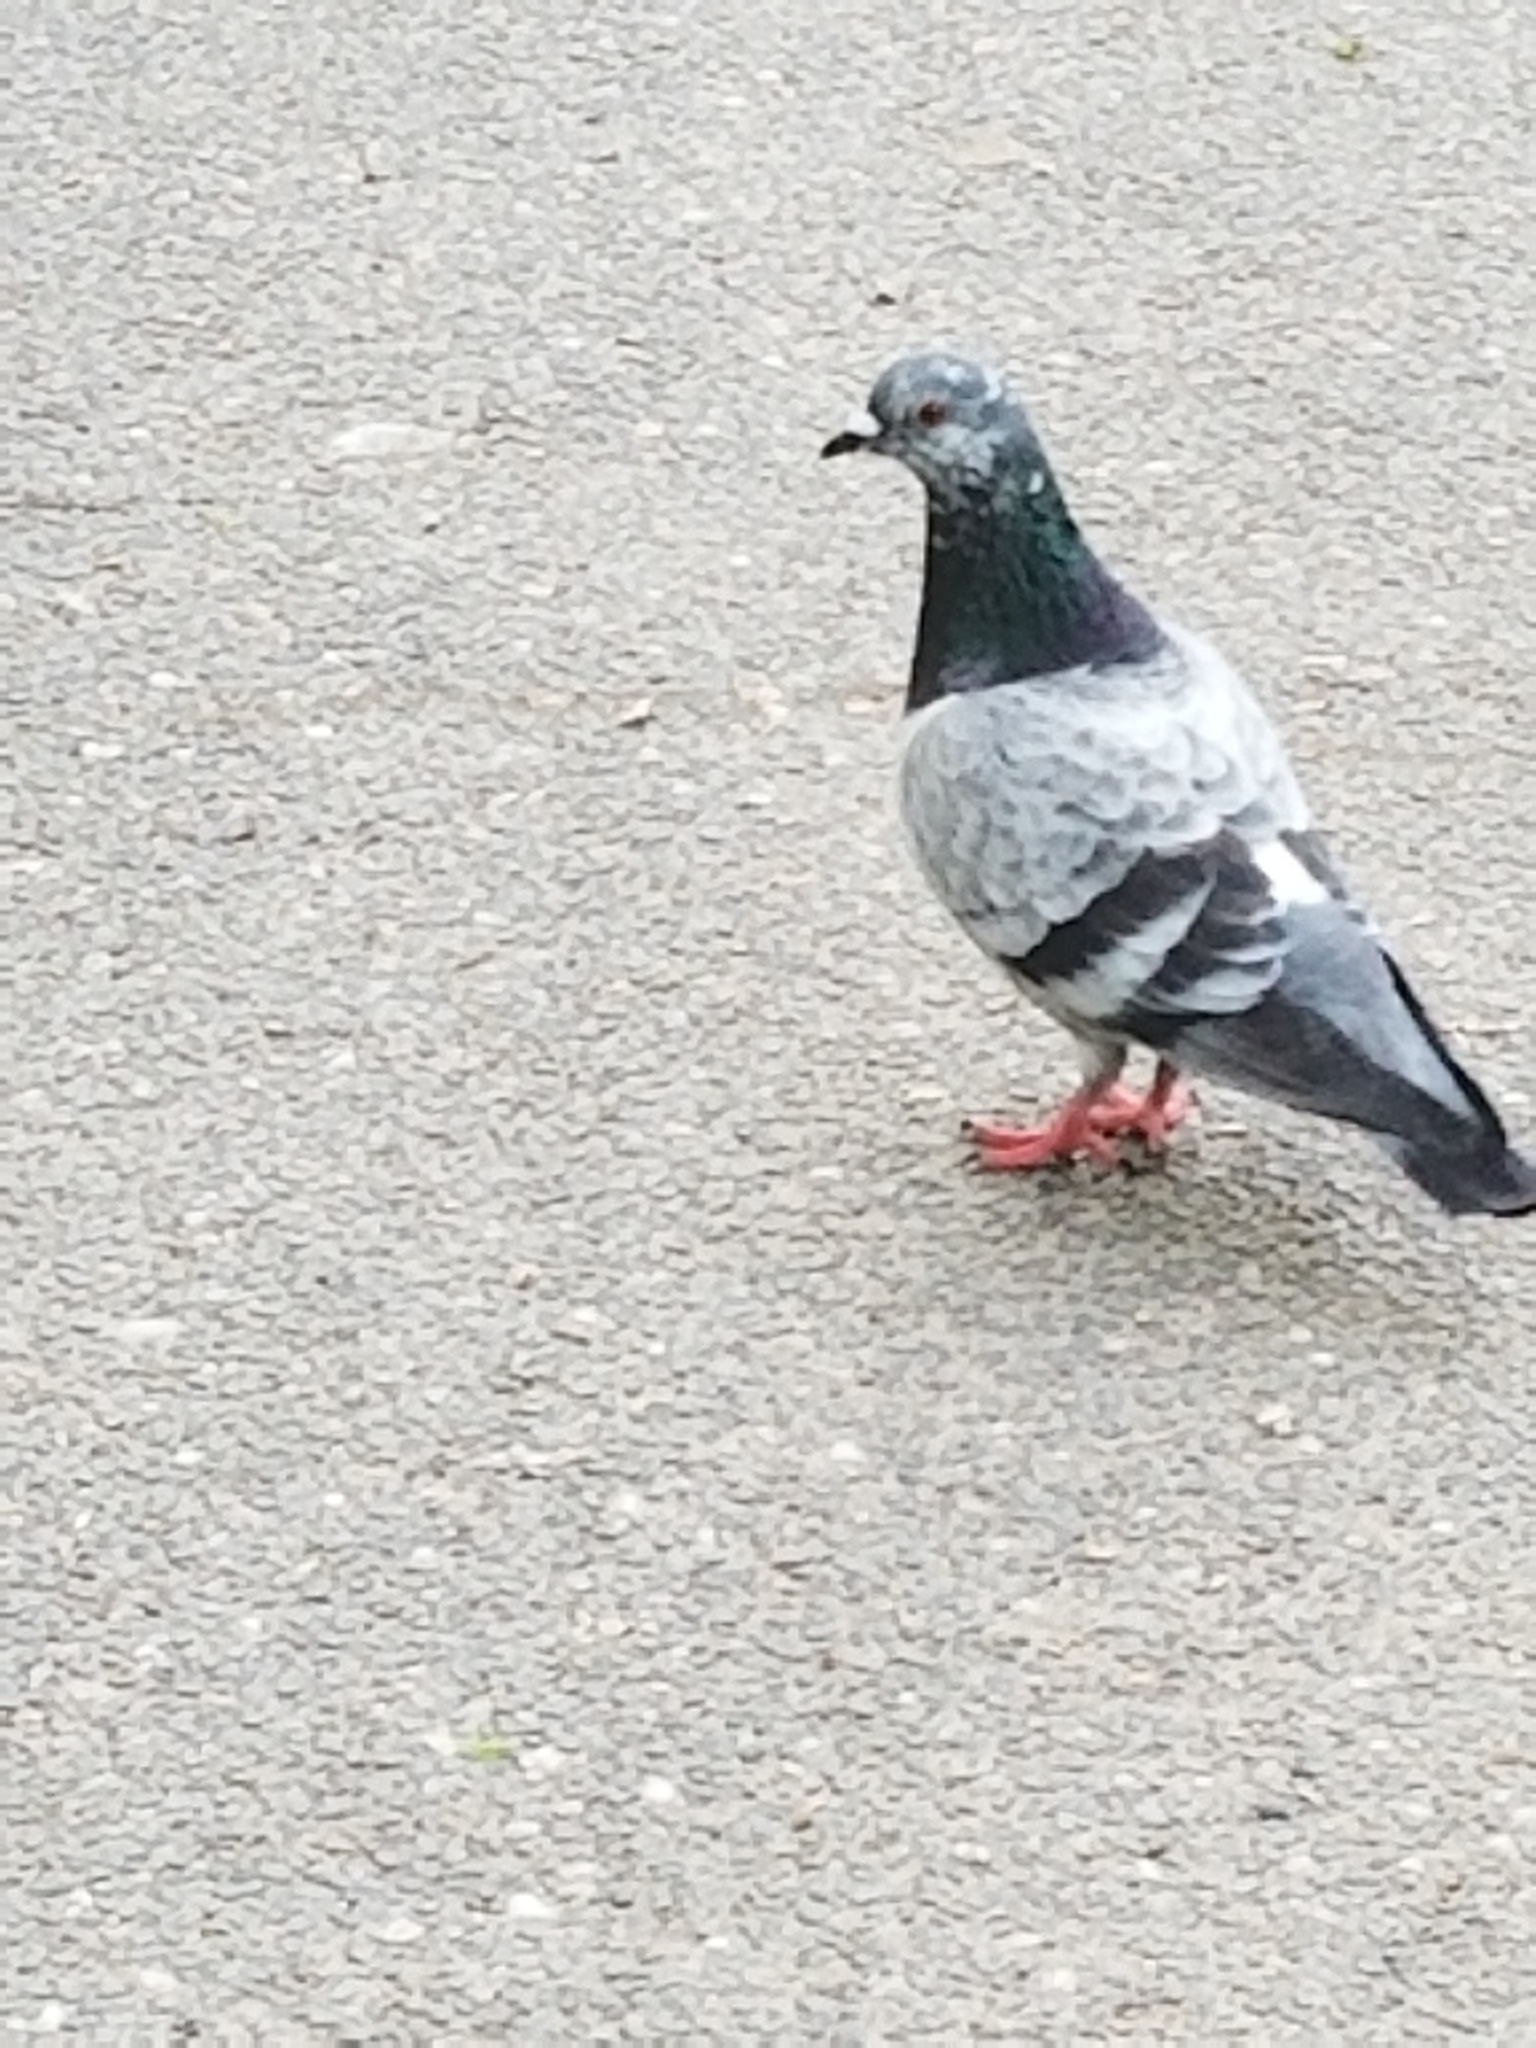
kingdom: Animalia
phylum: Chordata
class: Aves
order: Columbiformes
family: Columbidae
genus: Columba
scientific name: Columba livia
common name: Rock pigeon
